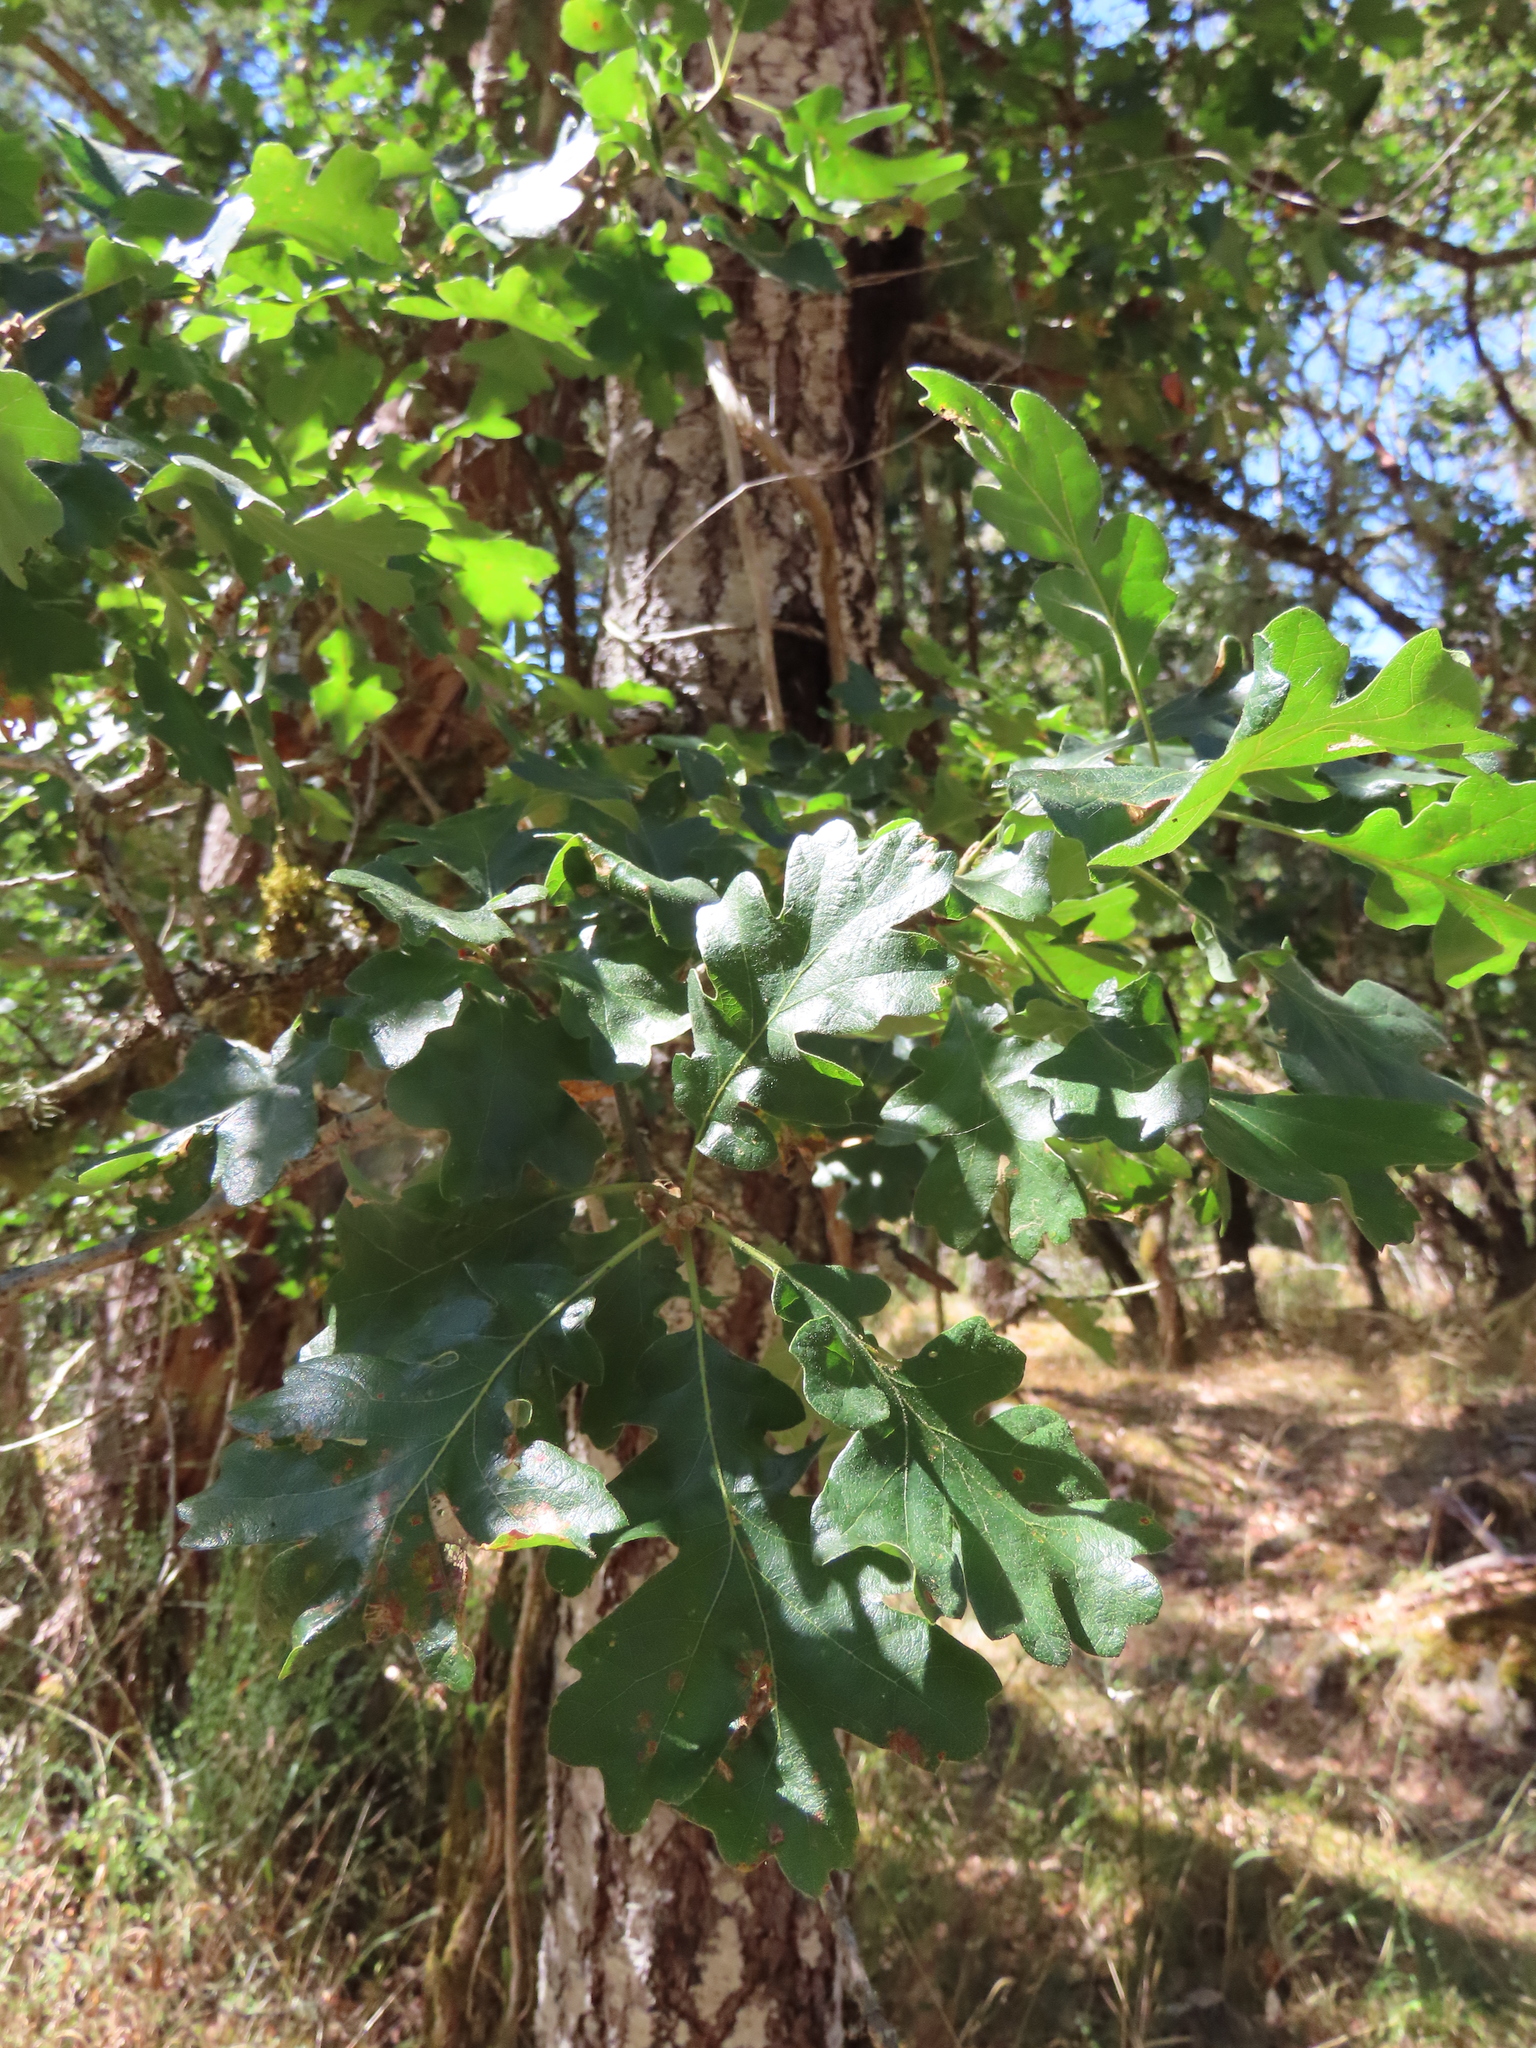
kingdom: Plantae
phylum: Tracheophyta
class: Magnoliopsida
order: Fagales
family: Fagaceae
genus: Quercus
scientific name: Quercus garryana
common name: Garry oak
